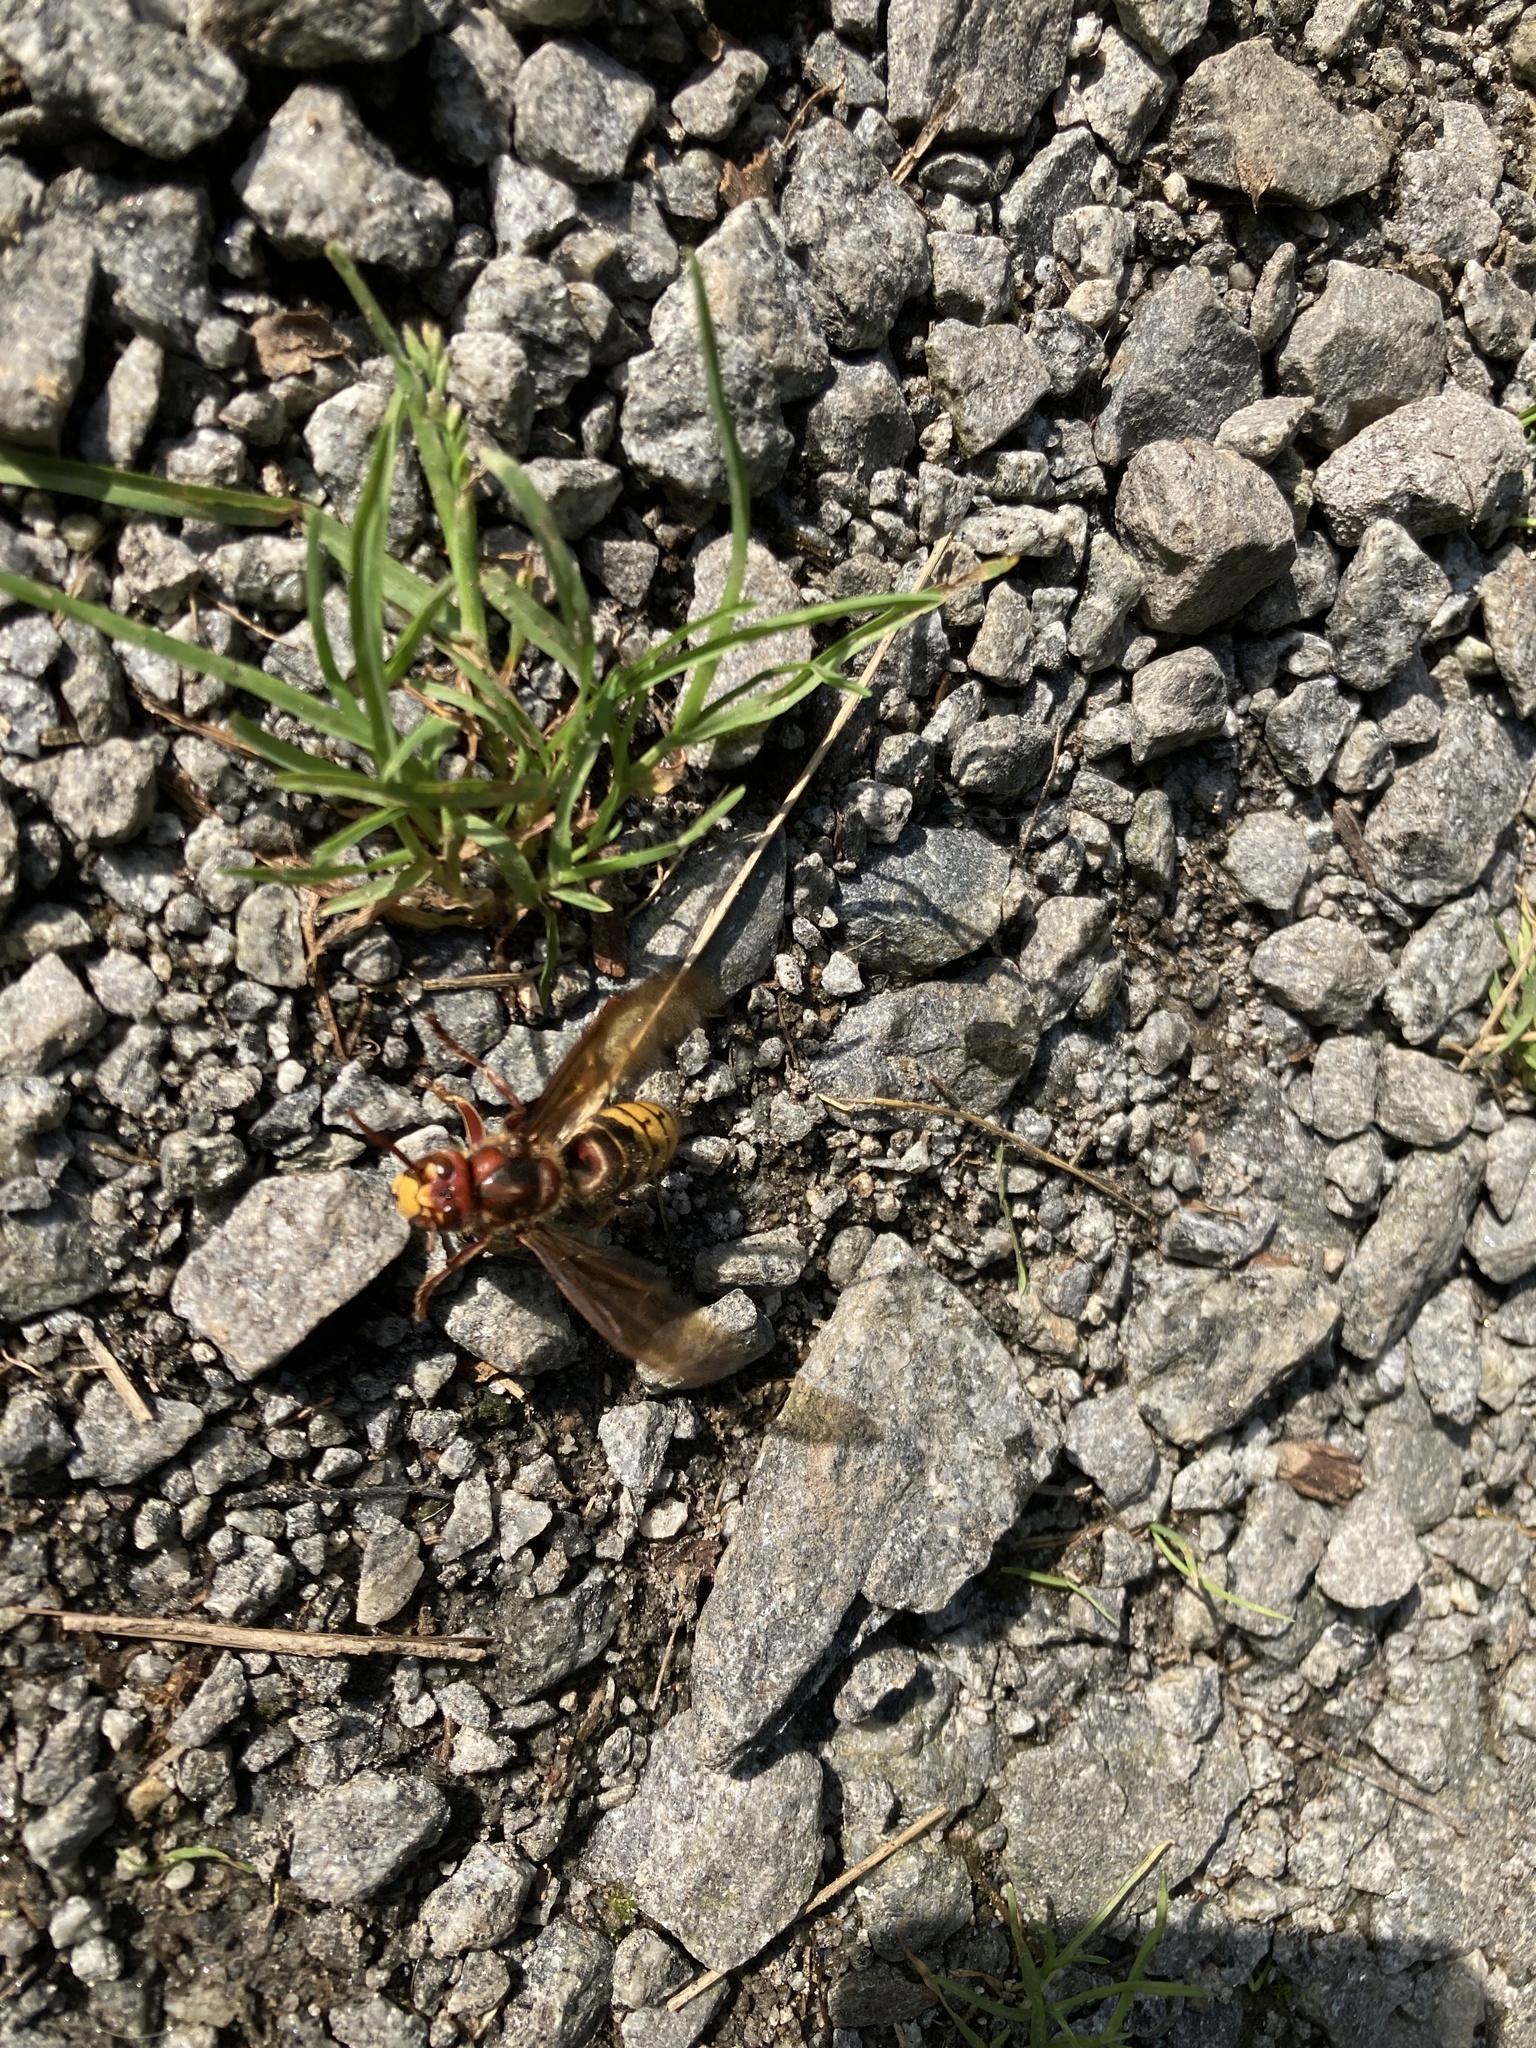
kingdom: Animalia
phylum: Arthropoda
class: Insecta
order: Hymenoptera
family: Vespidae
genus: Vespa
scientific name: Vespa crabro
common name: Hornet
